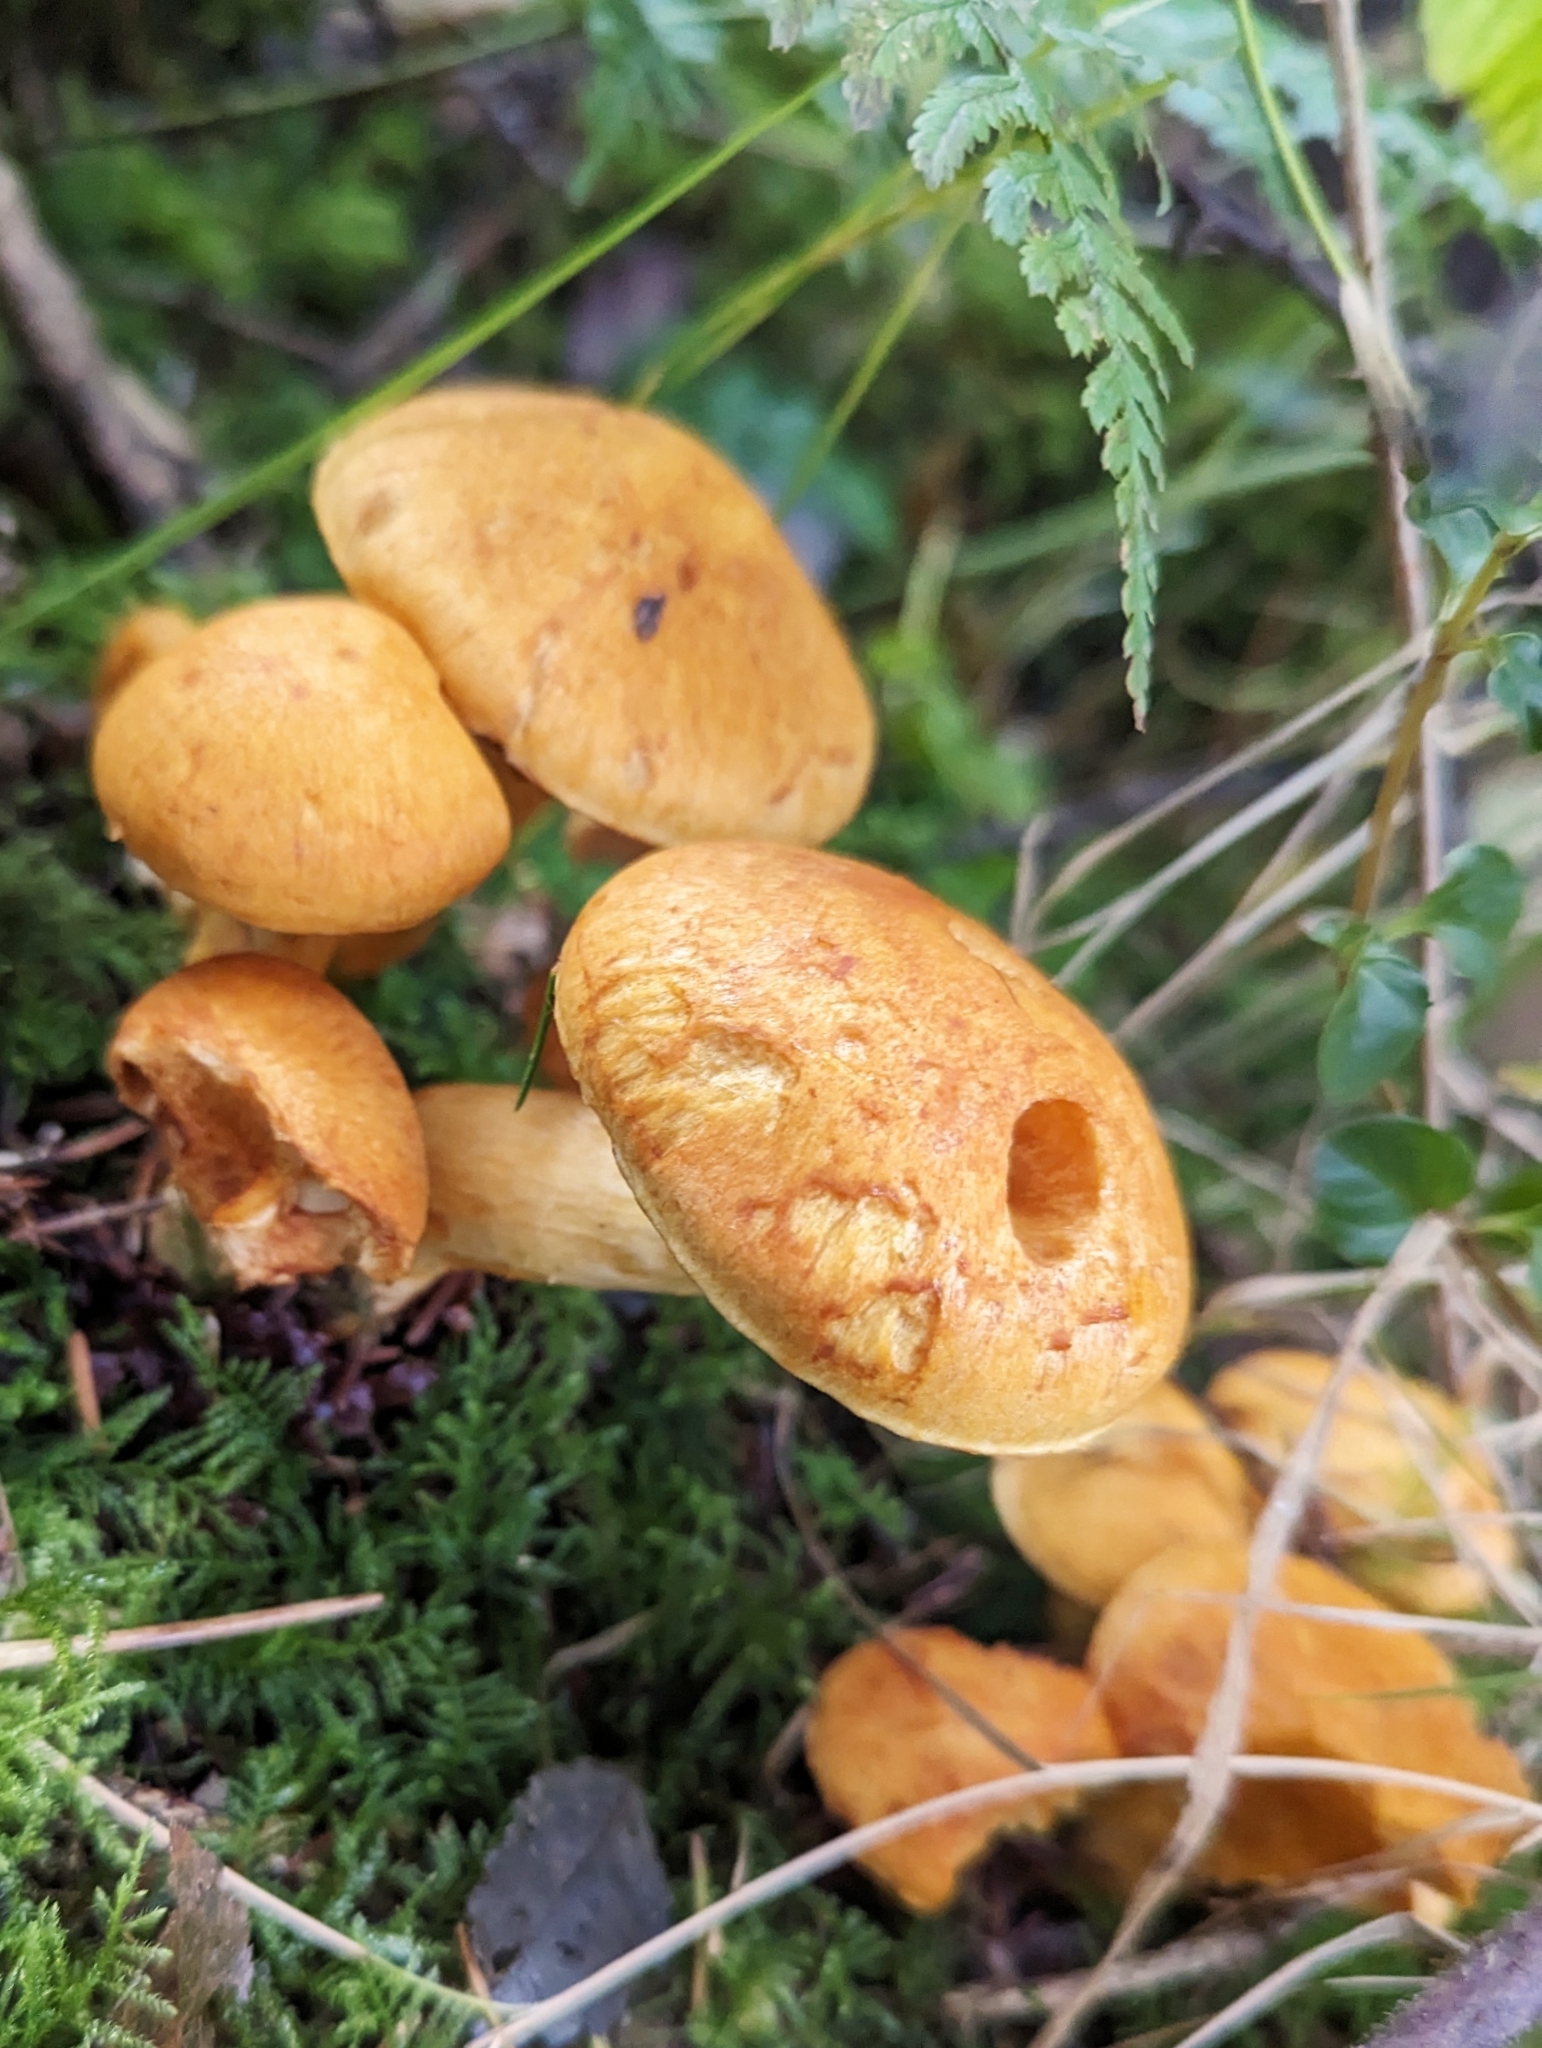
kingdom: Fungi
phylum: Basidiomycota
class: Agaricomycetes
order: Agaricales
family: Hymenogastraceae
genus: Gymnopilus
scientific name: Gymnopilus junonius
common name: Spectacular rustgill
